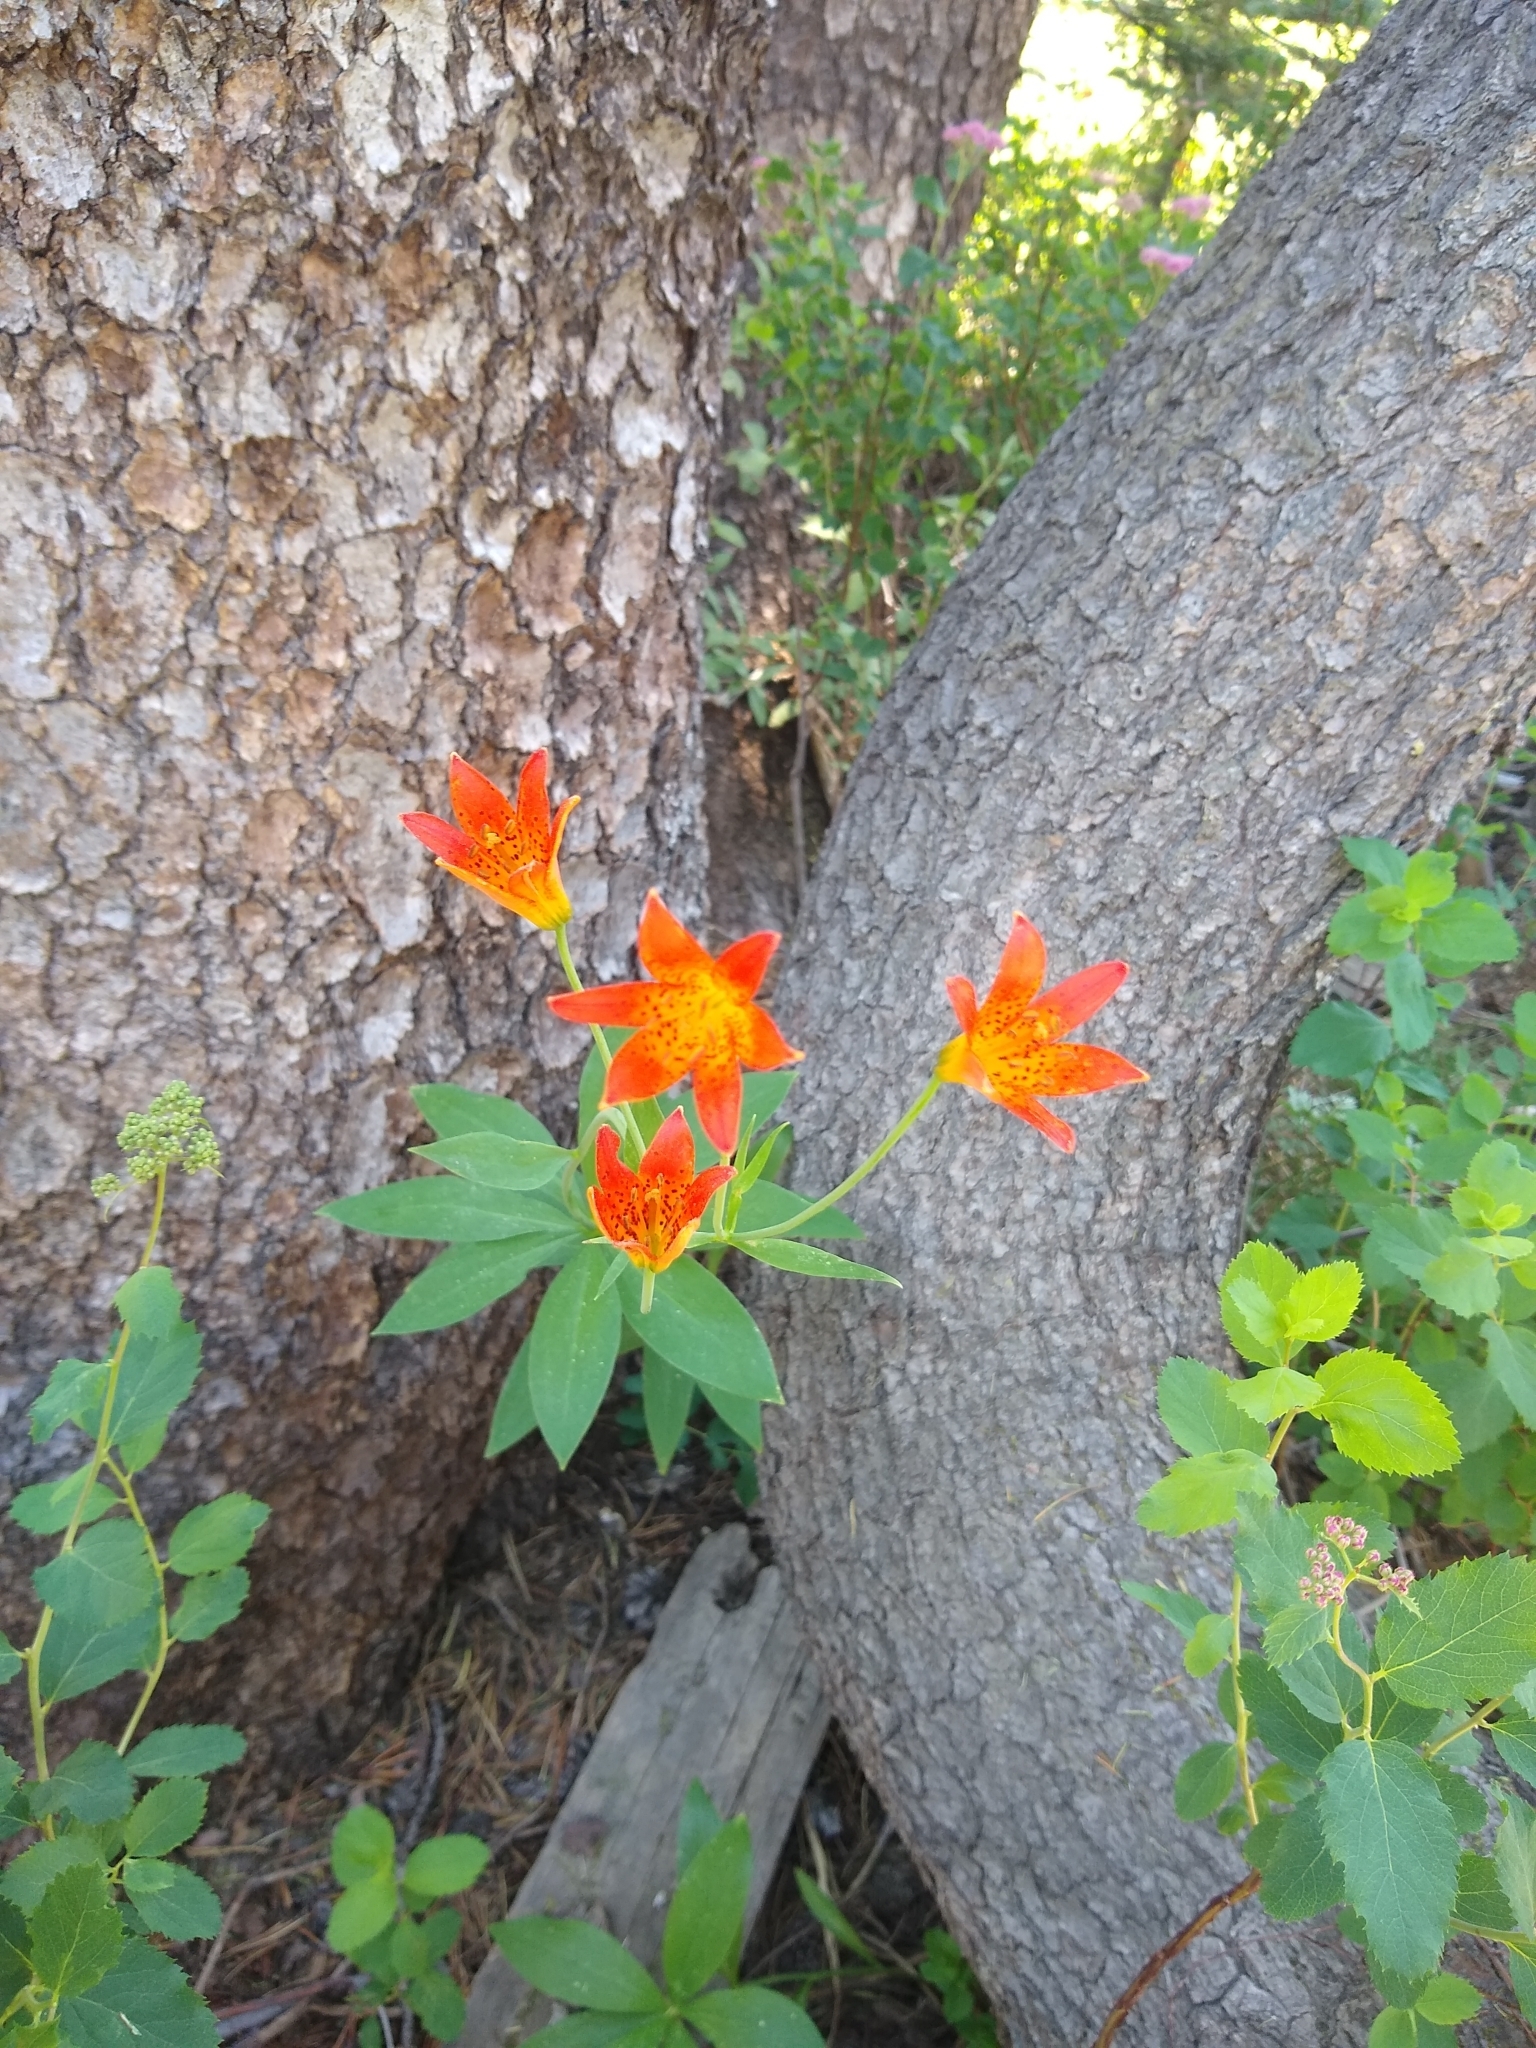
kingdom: Plantae
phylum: Tracheophyta
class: Liliopsida
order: Liliales
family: Liliaceae
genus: Lilium
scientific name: Lilium parvum
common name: Alpine lily
